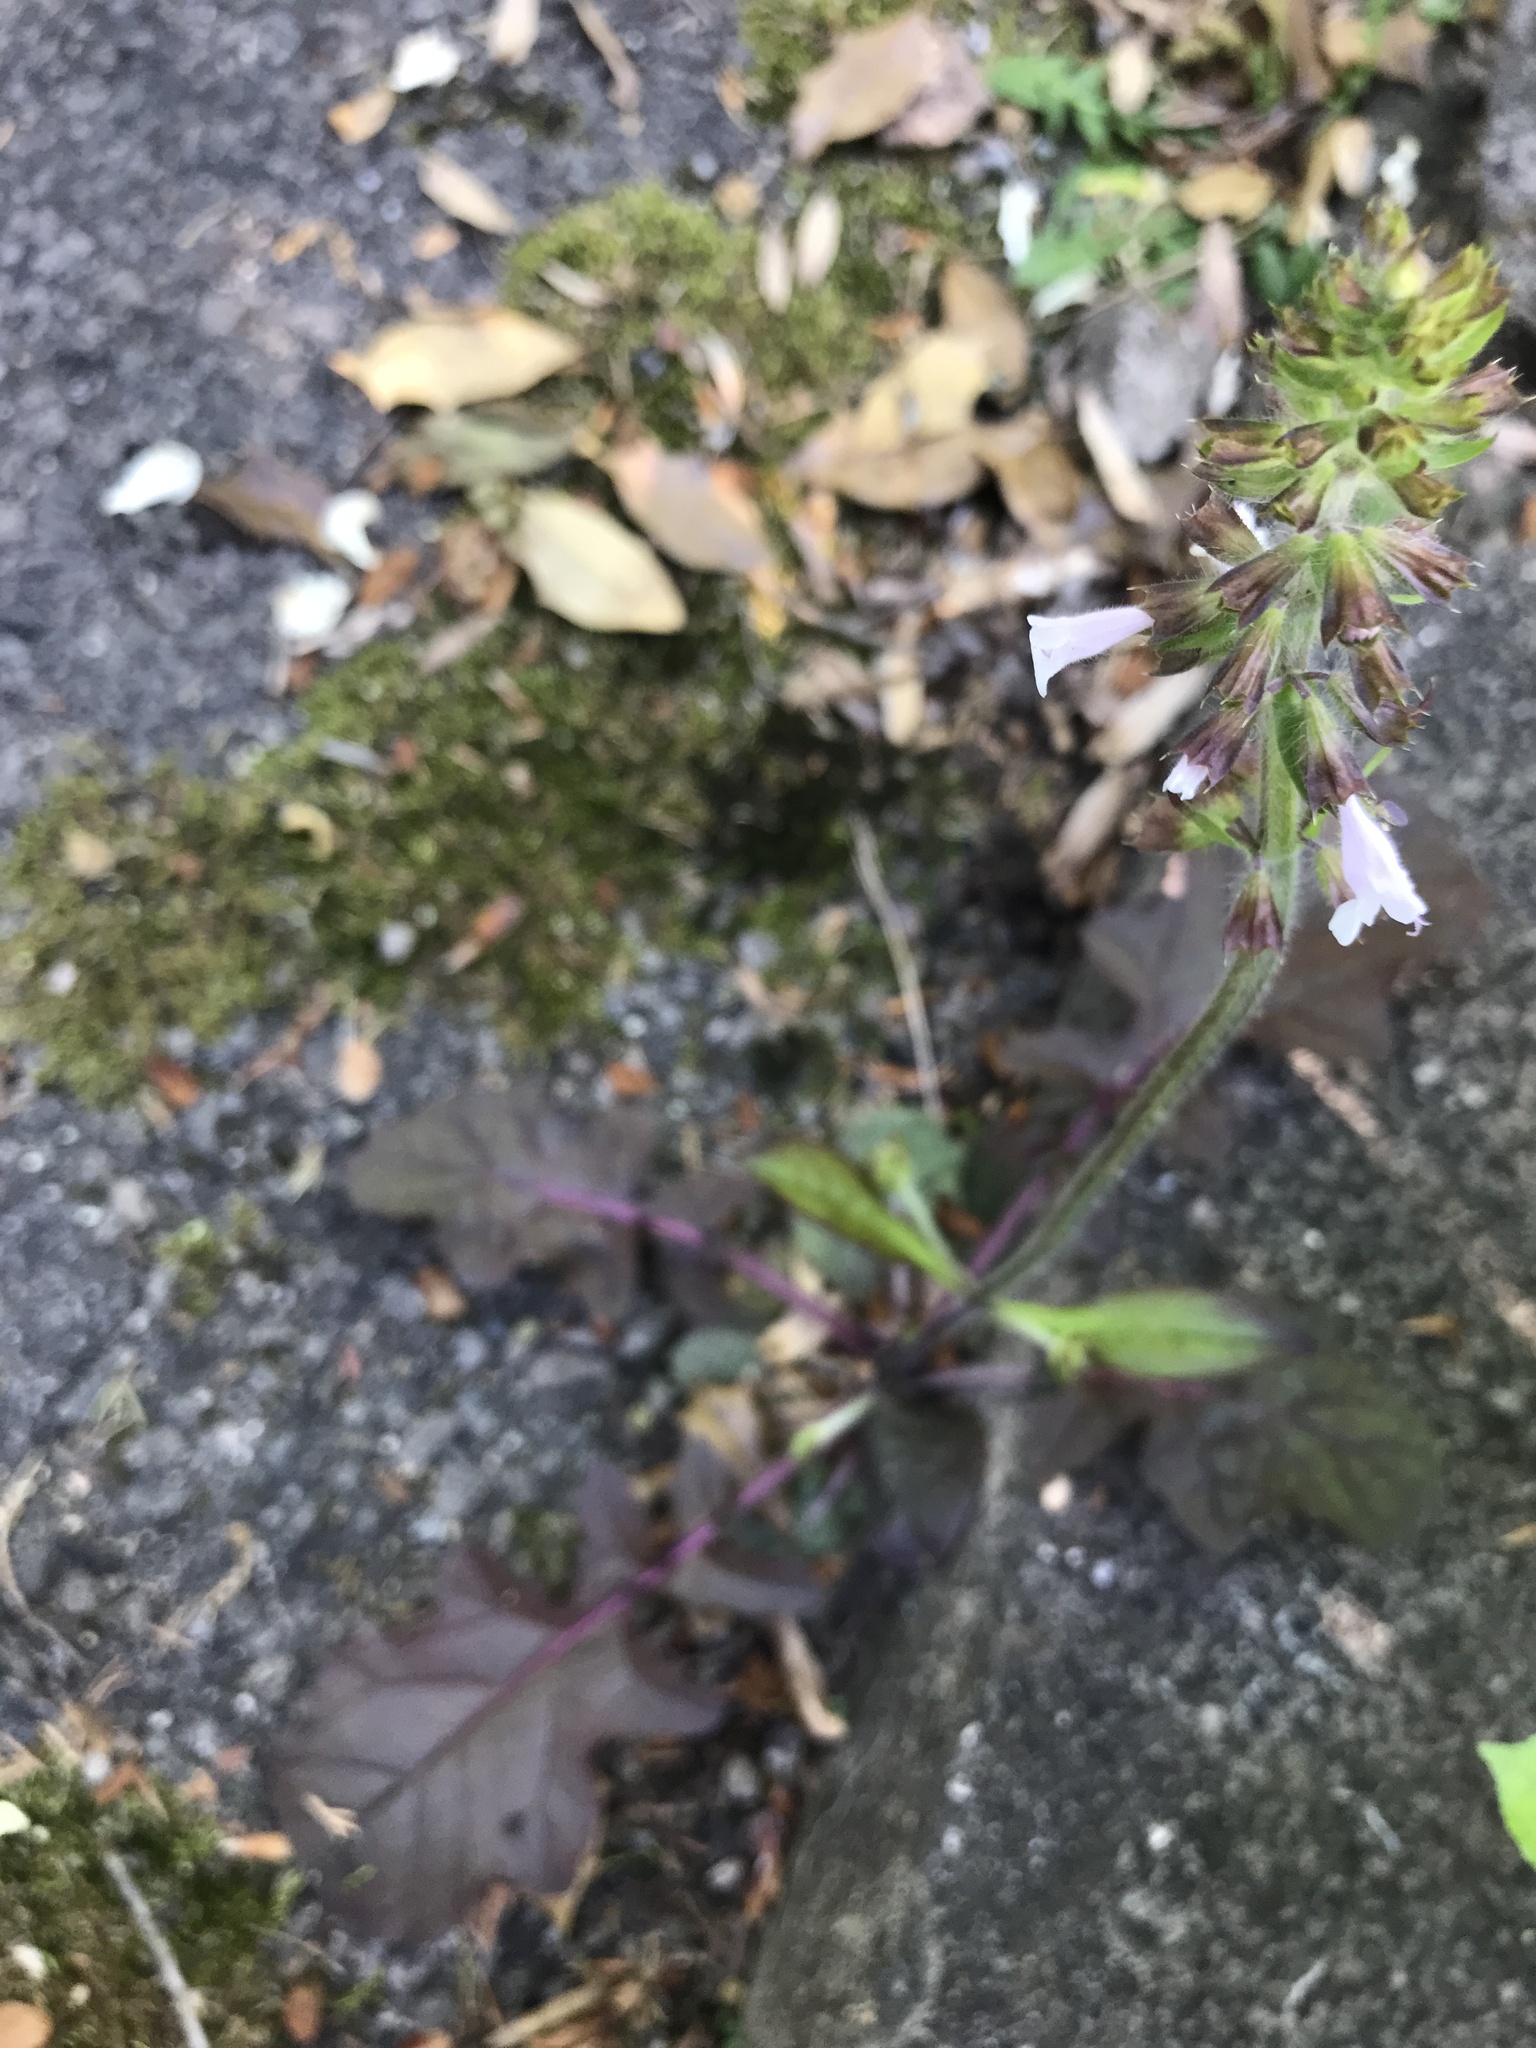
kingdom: Plantae
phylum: Tracheophyta
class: Magnoliopsida
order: Lamiales
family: Lamiaceae
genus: Salvia
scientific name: Salvia lyrata
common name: Cancerweed
